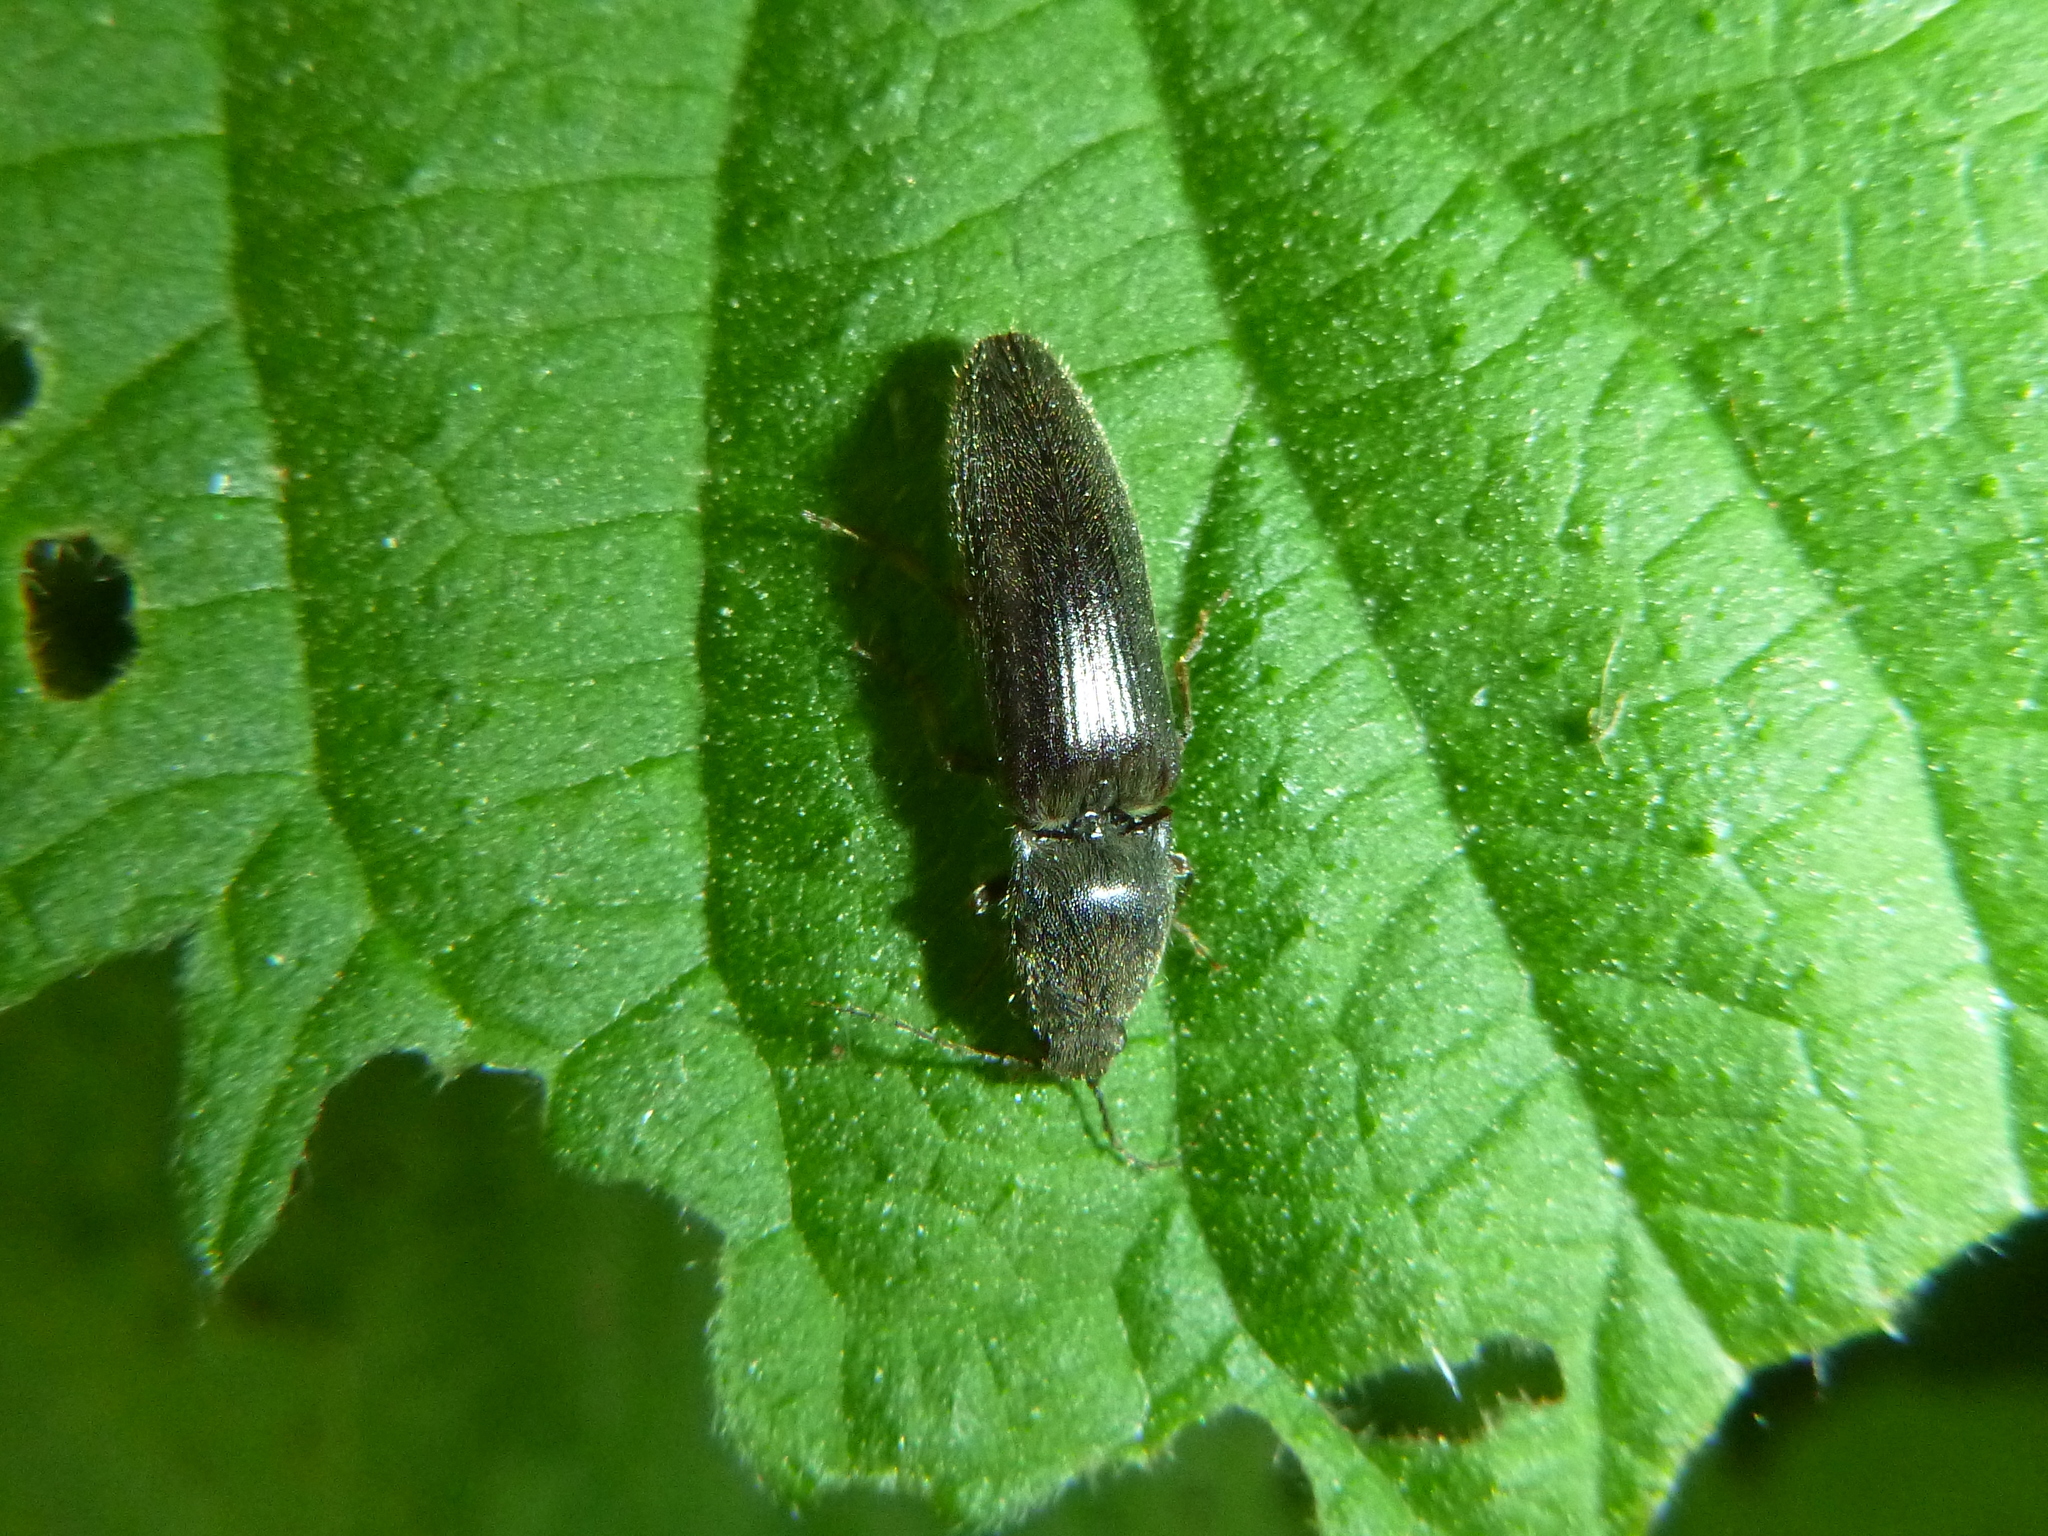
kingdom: Animalia
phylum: Arthropoda
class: Insecta
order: Coleoptera
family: Elateridae
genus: Athous
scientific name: Athous haemorrhoidalis
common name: Red-brown click beetle
